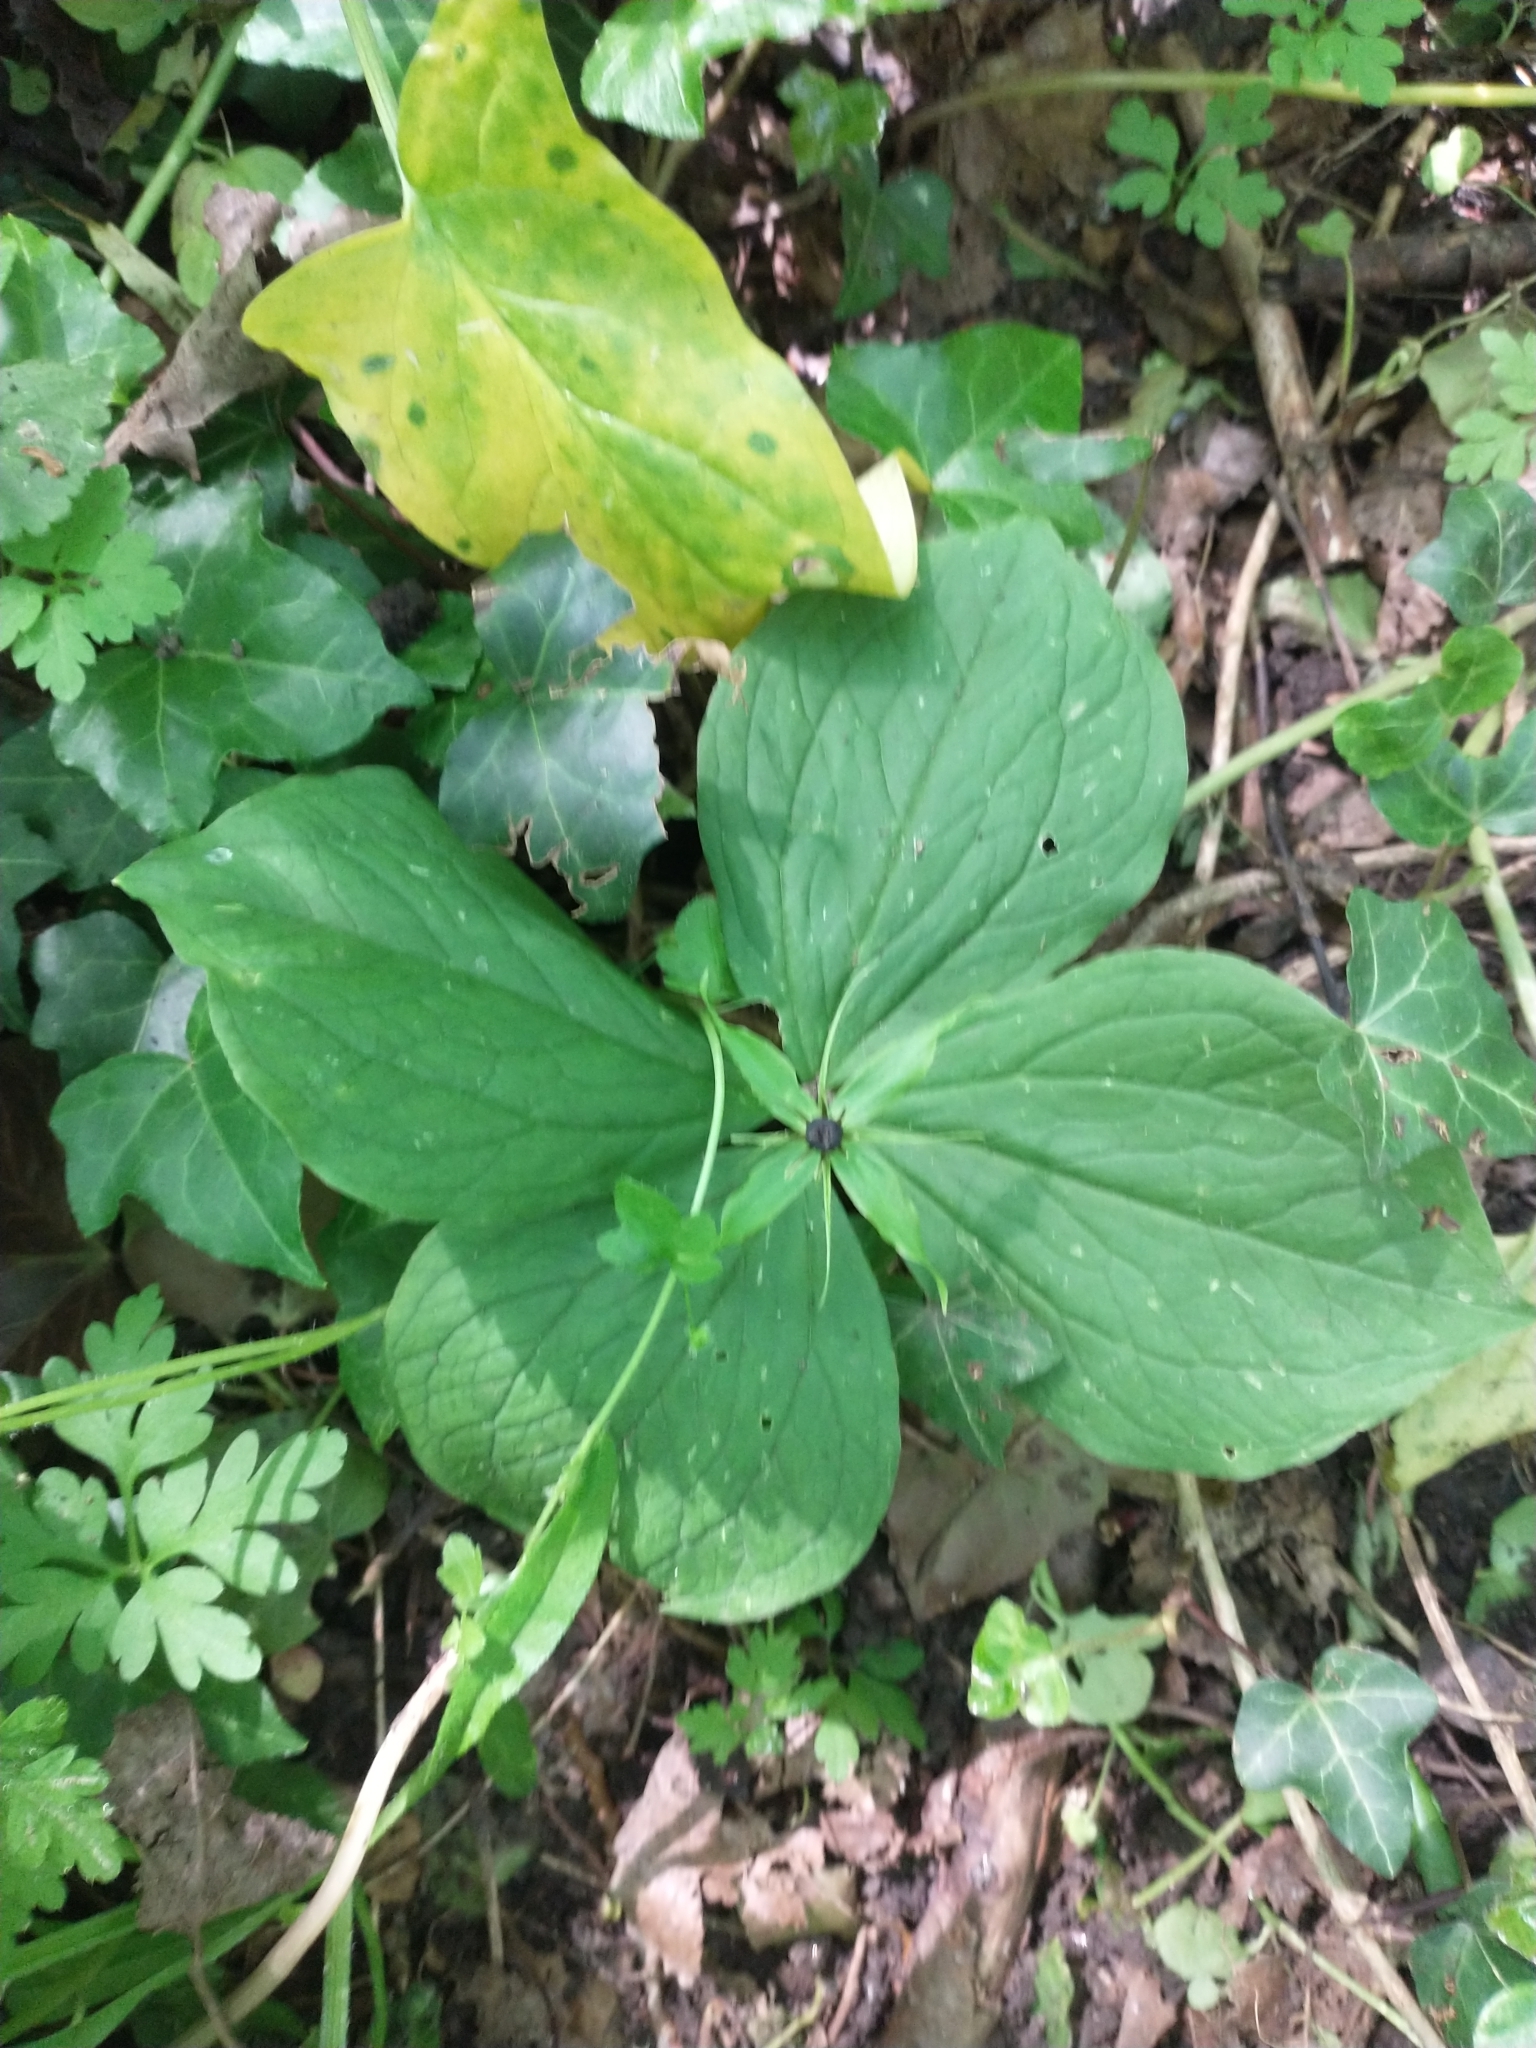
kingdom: Plantae
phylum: Tracheophyta
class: Liliopsida
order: Liliales
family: Melanthiaceae
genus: Paris
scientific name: Paris quadrifolia
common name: Herb-paris
